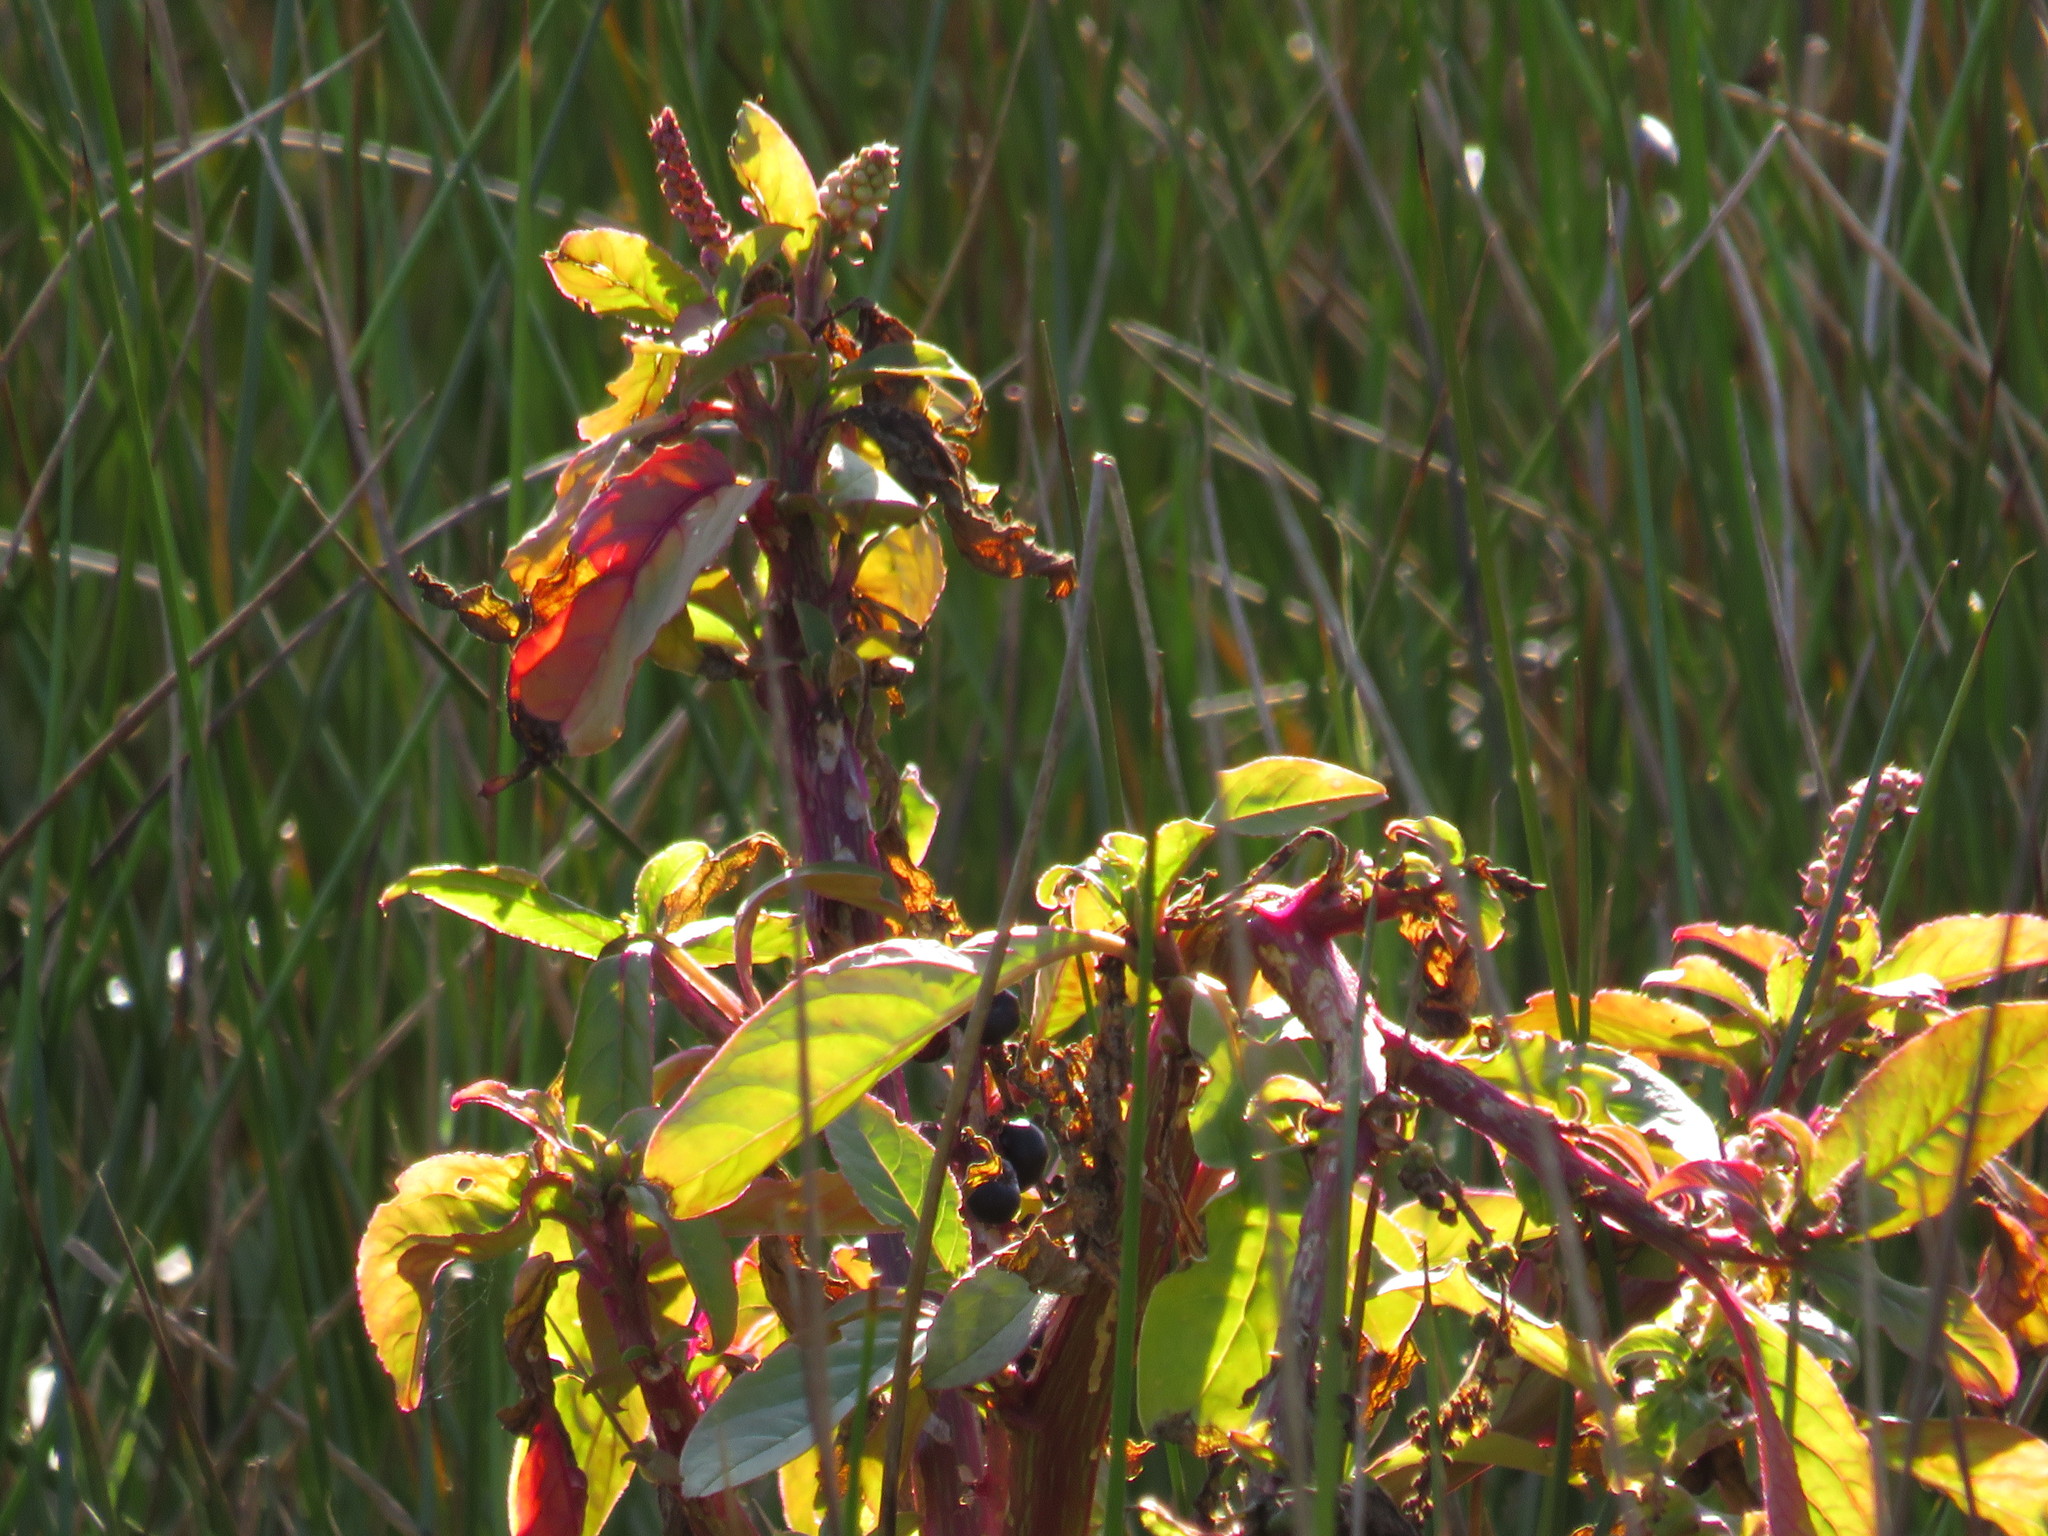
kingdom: Plantae
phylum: Tracheophyta
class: Magnoliopsida
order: Caryophyllales
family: Phytolaccaceae
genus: Phytolacca
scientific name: Phytolacca icosandra
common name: Button pokeweed
